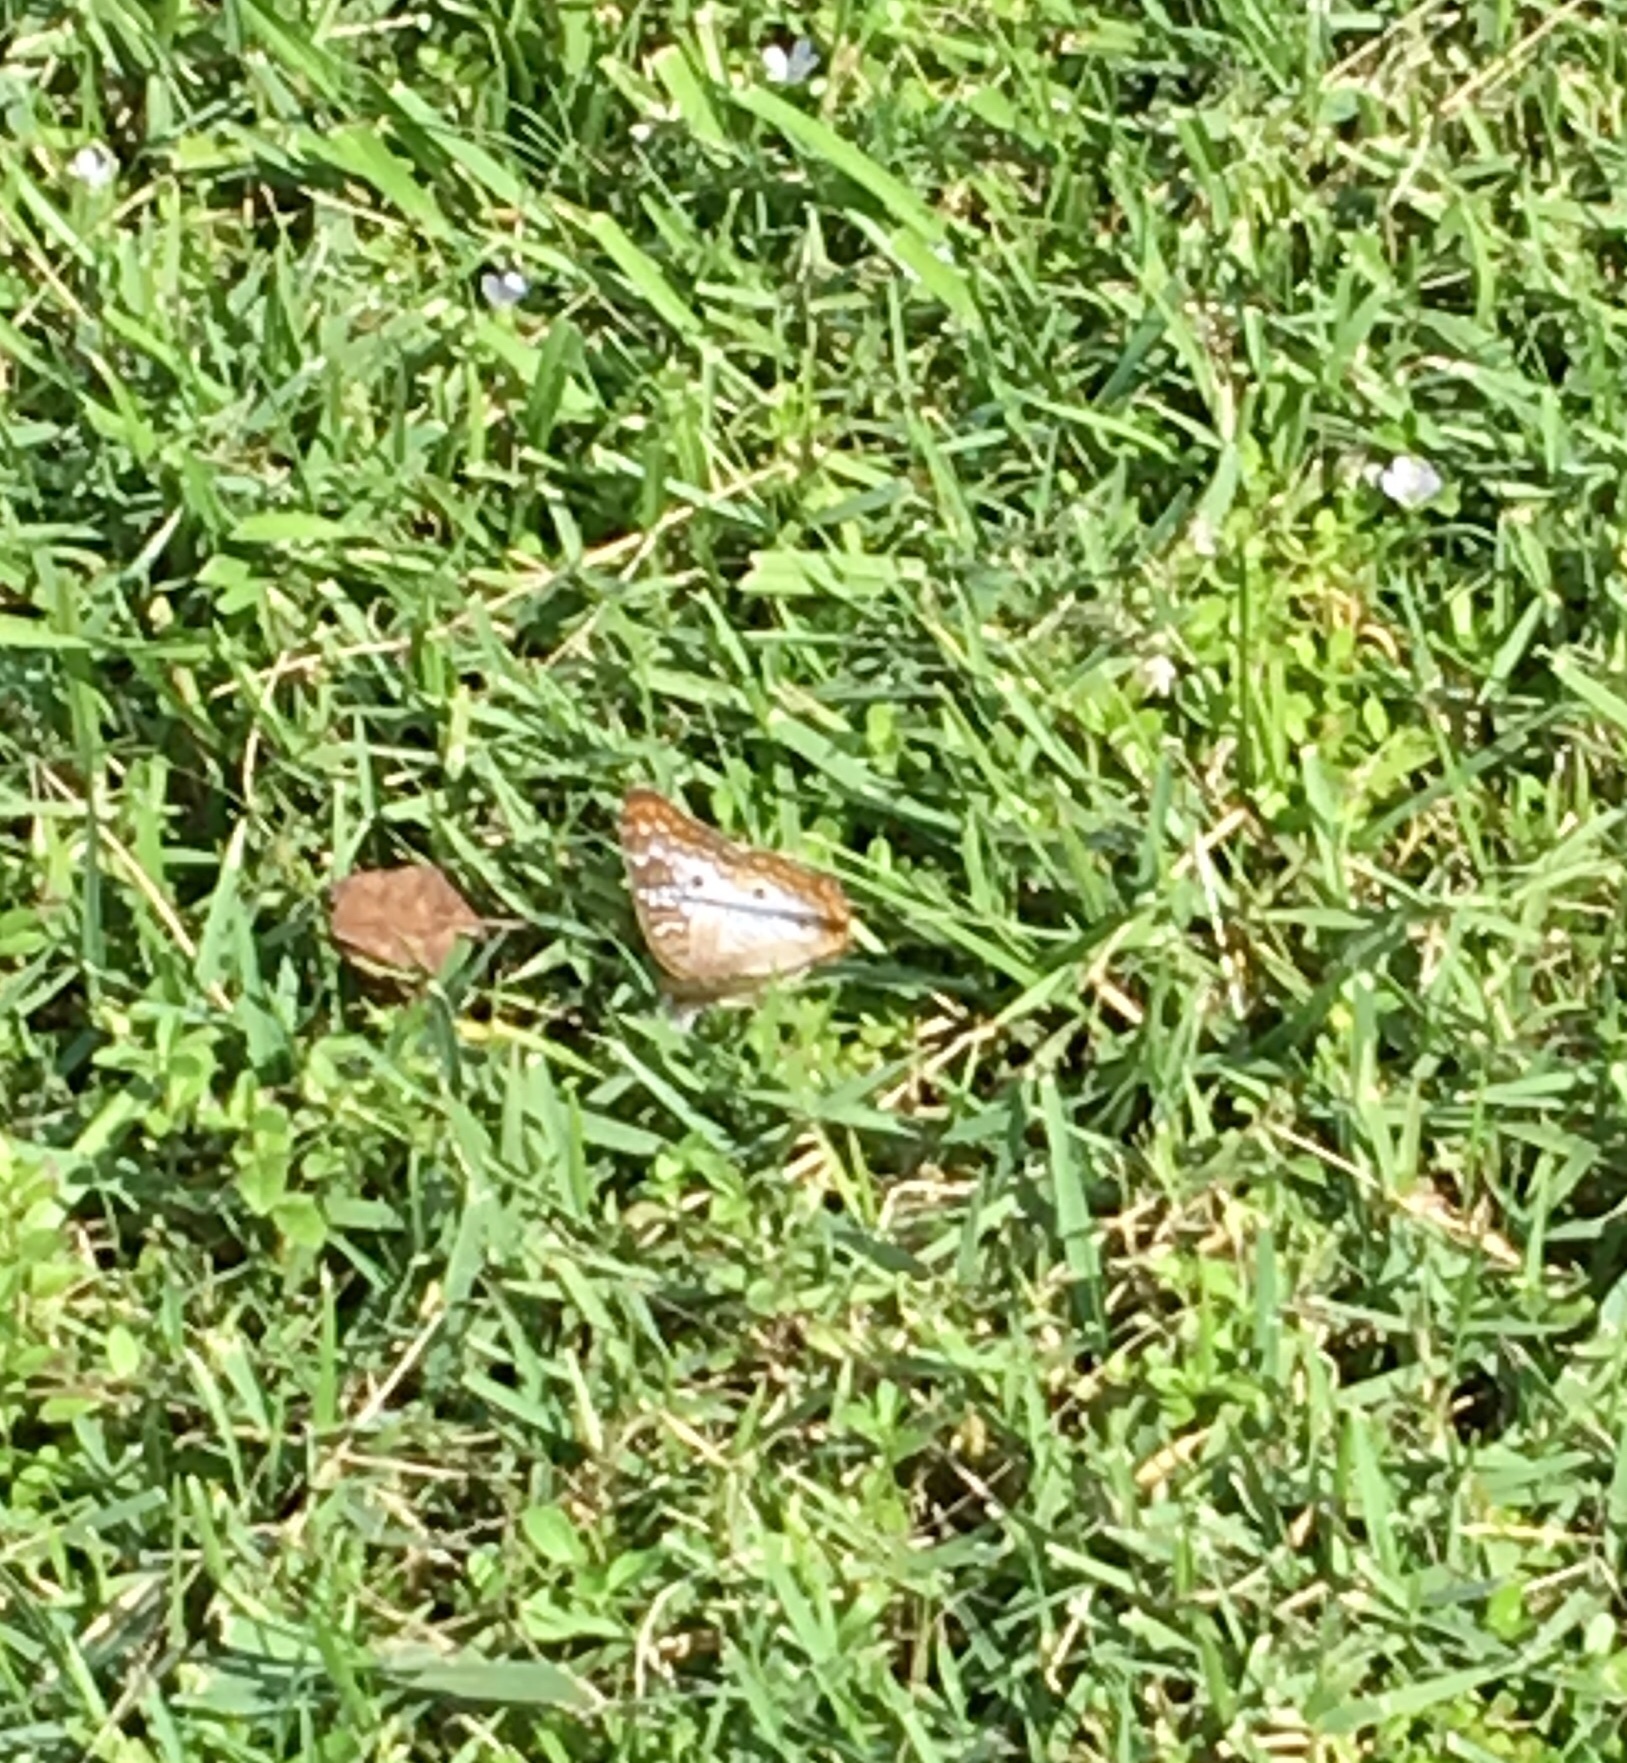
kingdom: Animalia
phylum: Arthropoda
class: Insecta
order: Lepidoptera
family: Nymphalidae
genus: Anartia
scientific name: Anartia jatrophae
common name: White peacock
